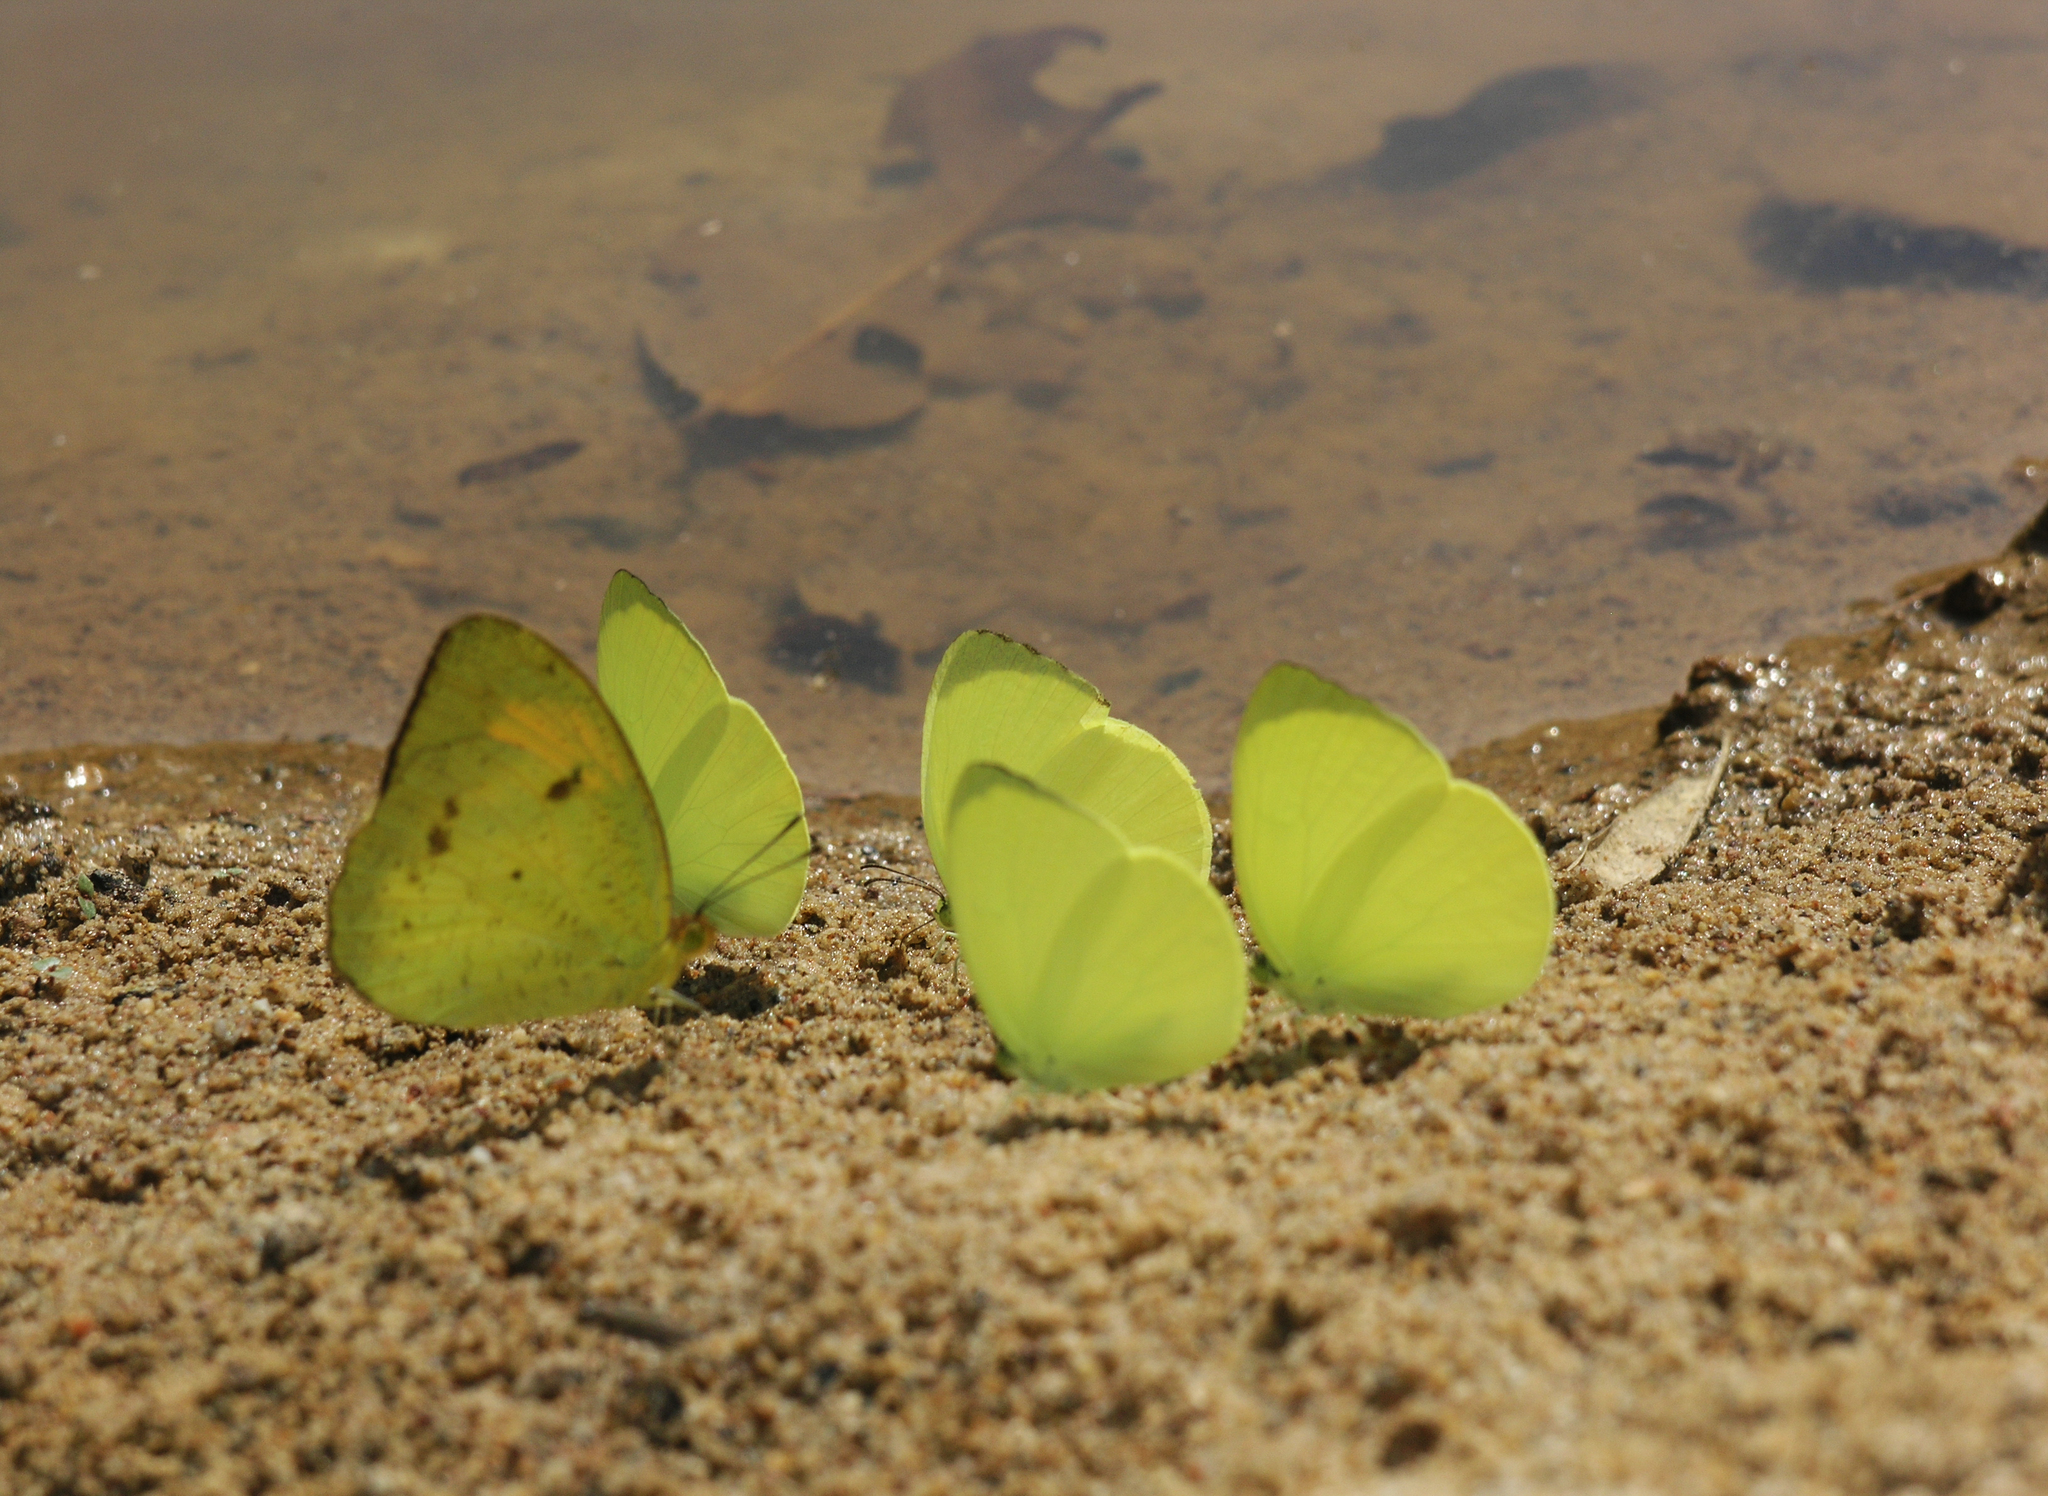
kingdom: Animalia
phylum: Arthropoda
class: Insecta
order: Lepidoptera
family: Pieridae
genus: Ixias
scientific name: Ixias pyrene
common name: Yellow orange tip
